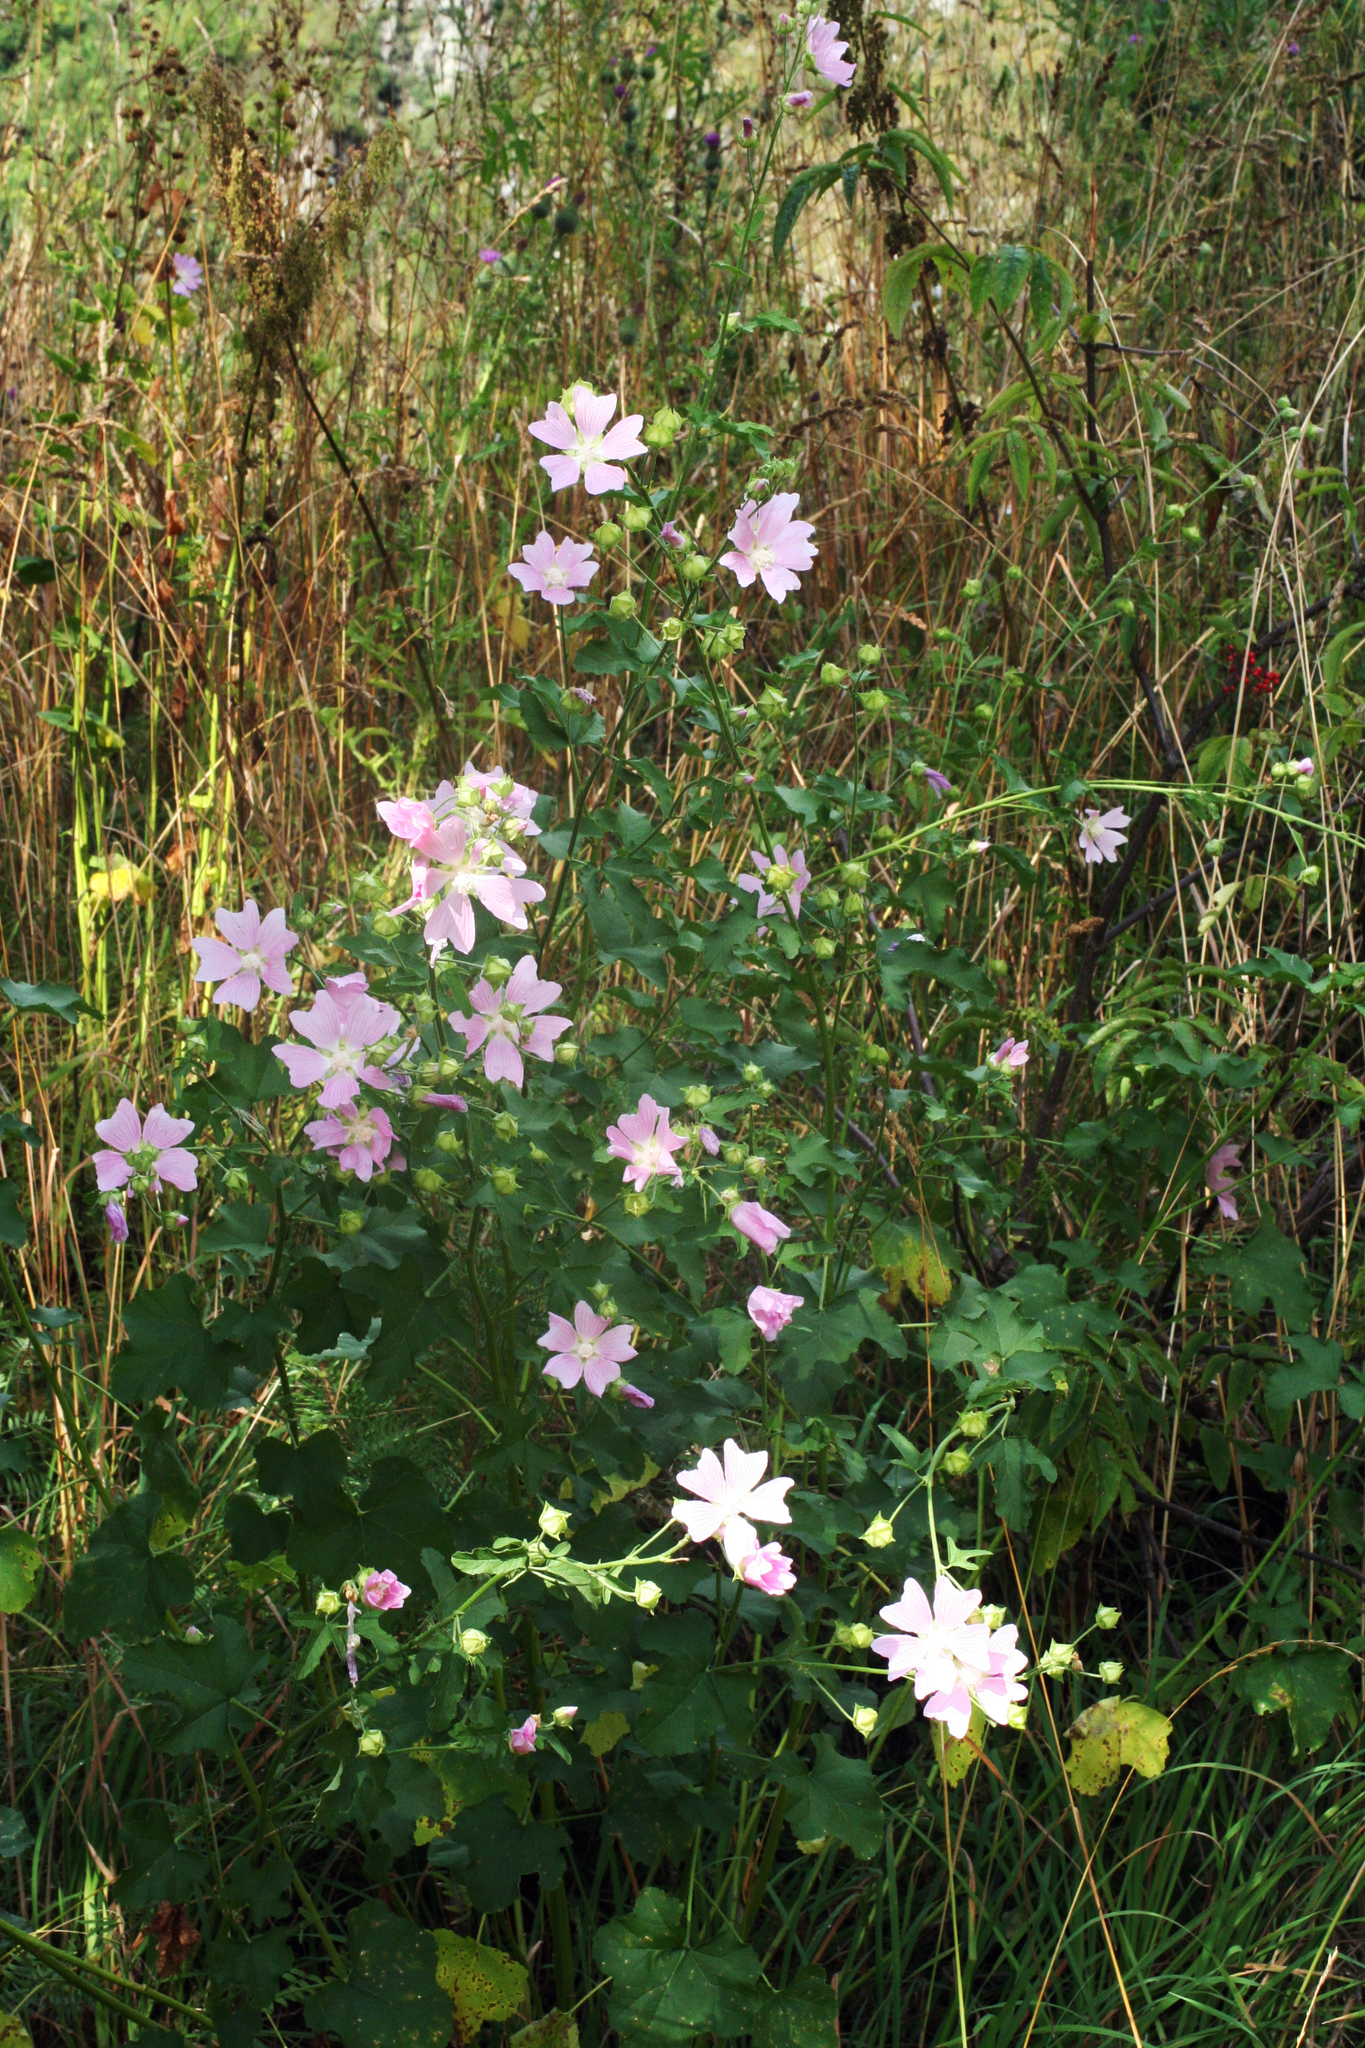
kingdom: Plantae
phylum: Tracheophyta
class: Magnoliopsida
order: Malvales
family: Malvaceae
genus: Malva
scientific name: Malva thuringiaca
